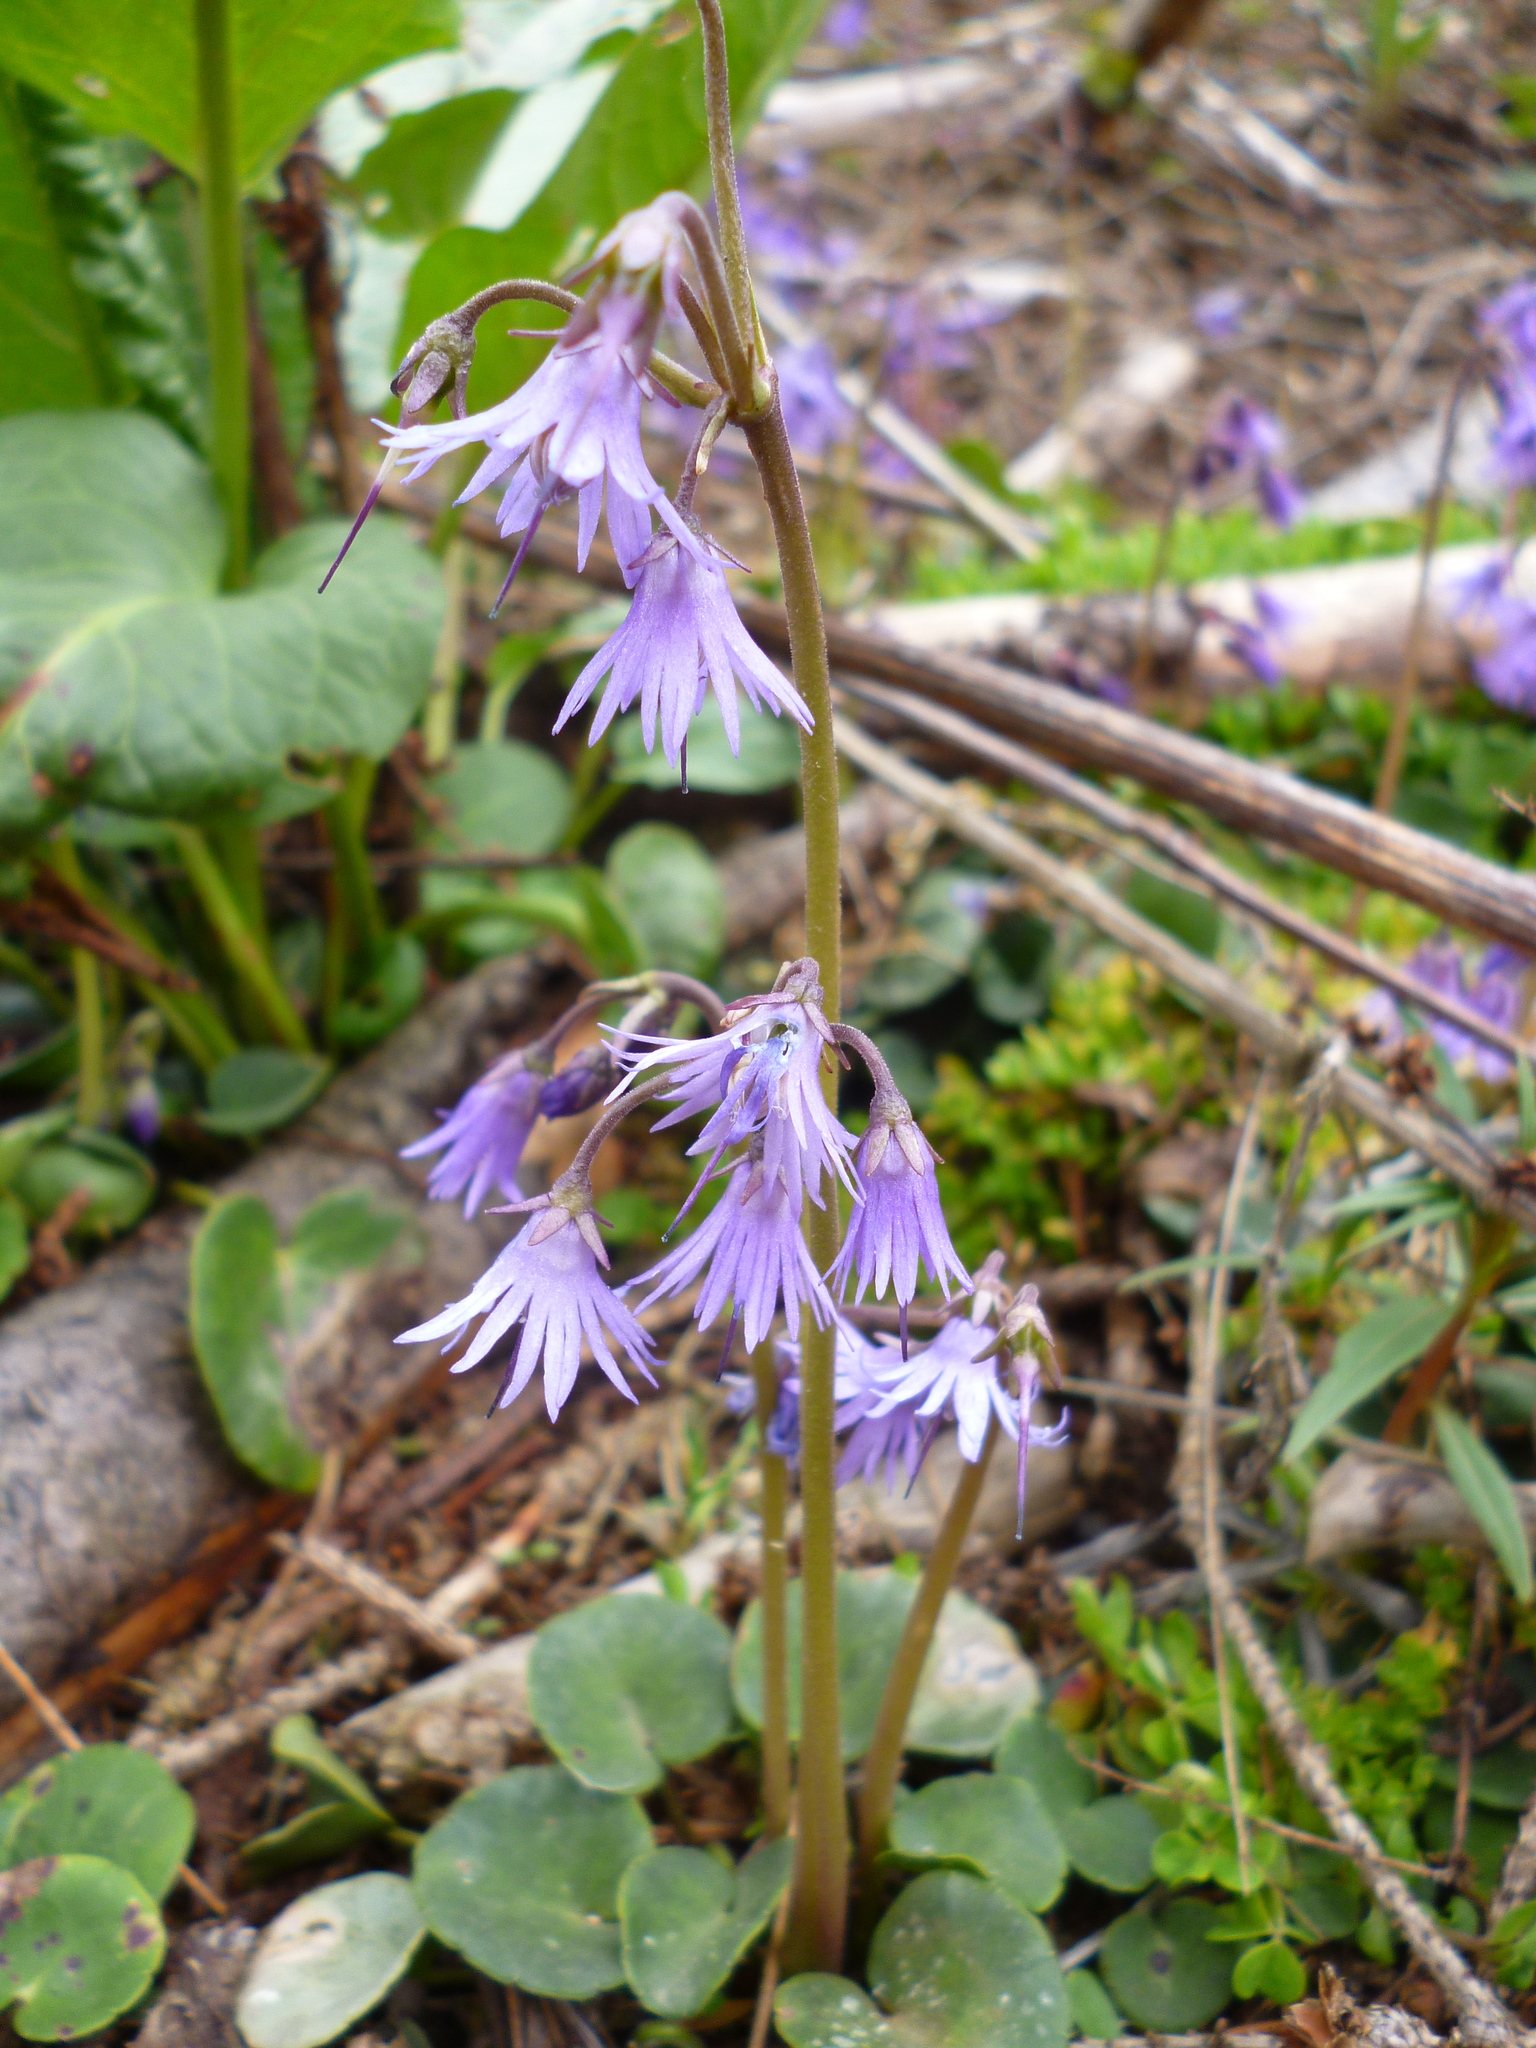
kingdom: Plantae
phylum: Tracheophyta
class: Magnoliopsida
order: Ericales
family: Primulaceae
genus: Soldanella
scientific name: Soldanella montana
